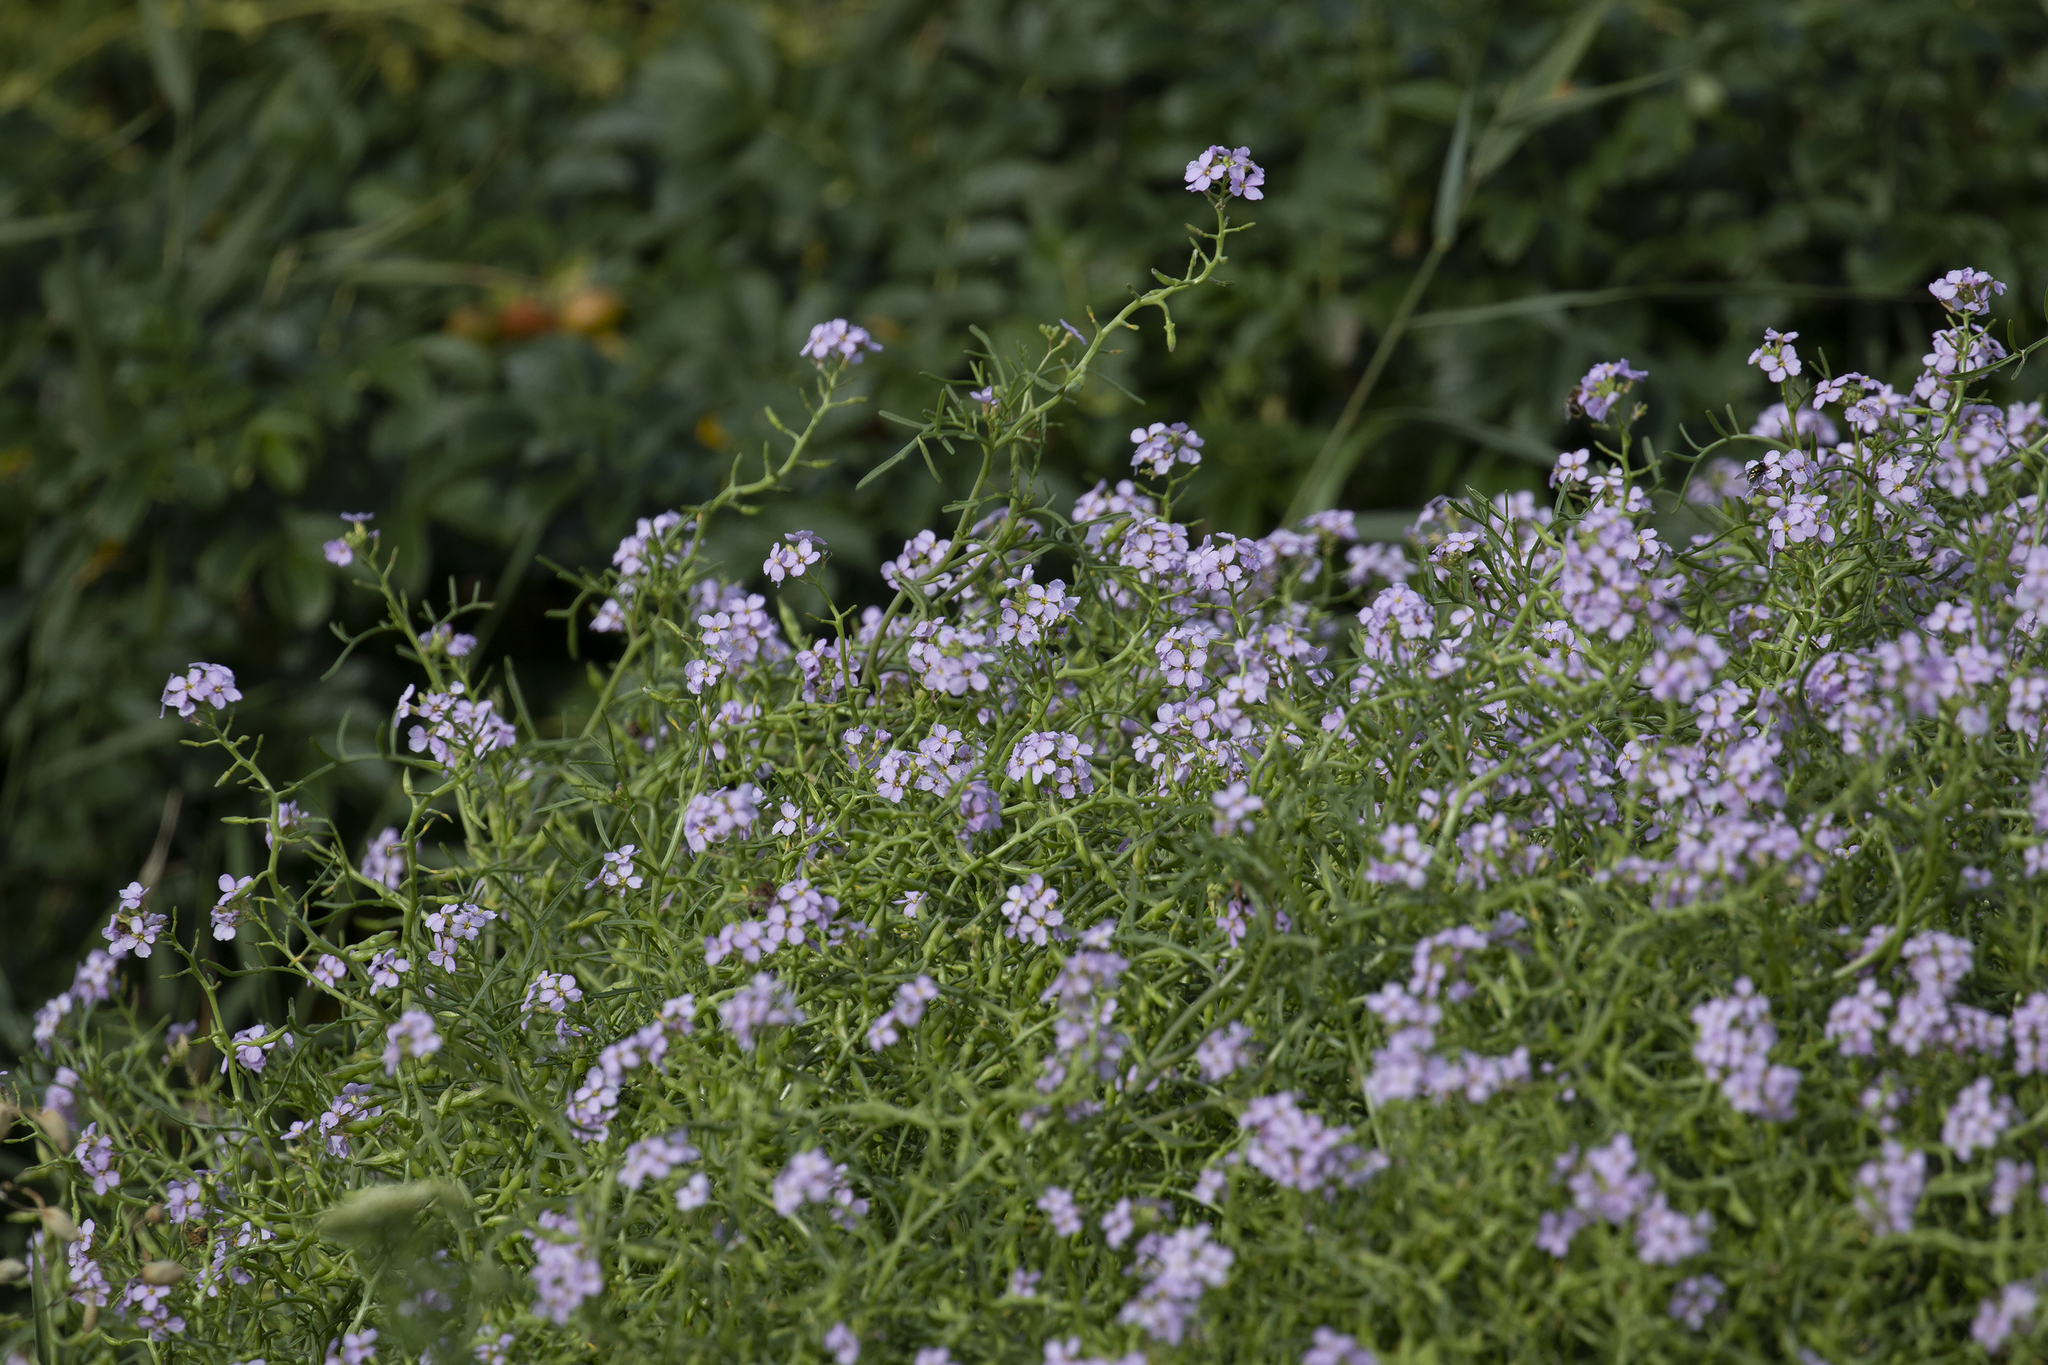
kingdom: Plantae
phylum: Tracheophyta
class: Magnoliopsida
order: Brassicales
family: Brassicaceae
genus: Cakile
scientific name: Cakile maritima
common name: Sea rocket
